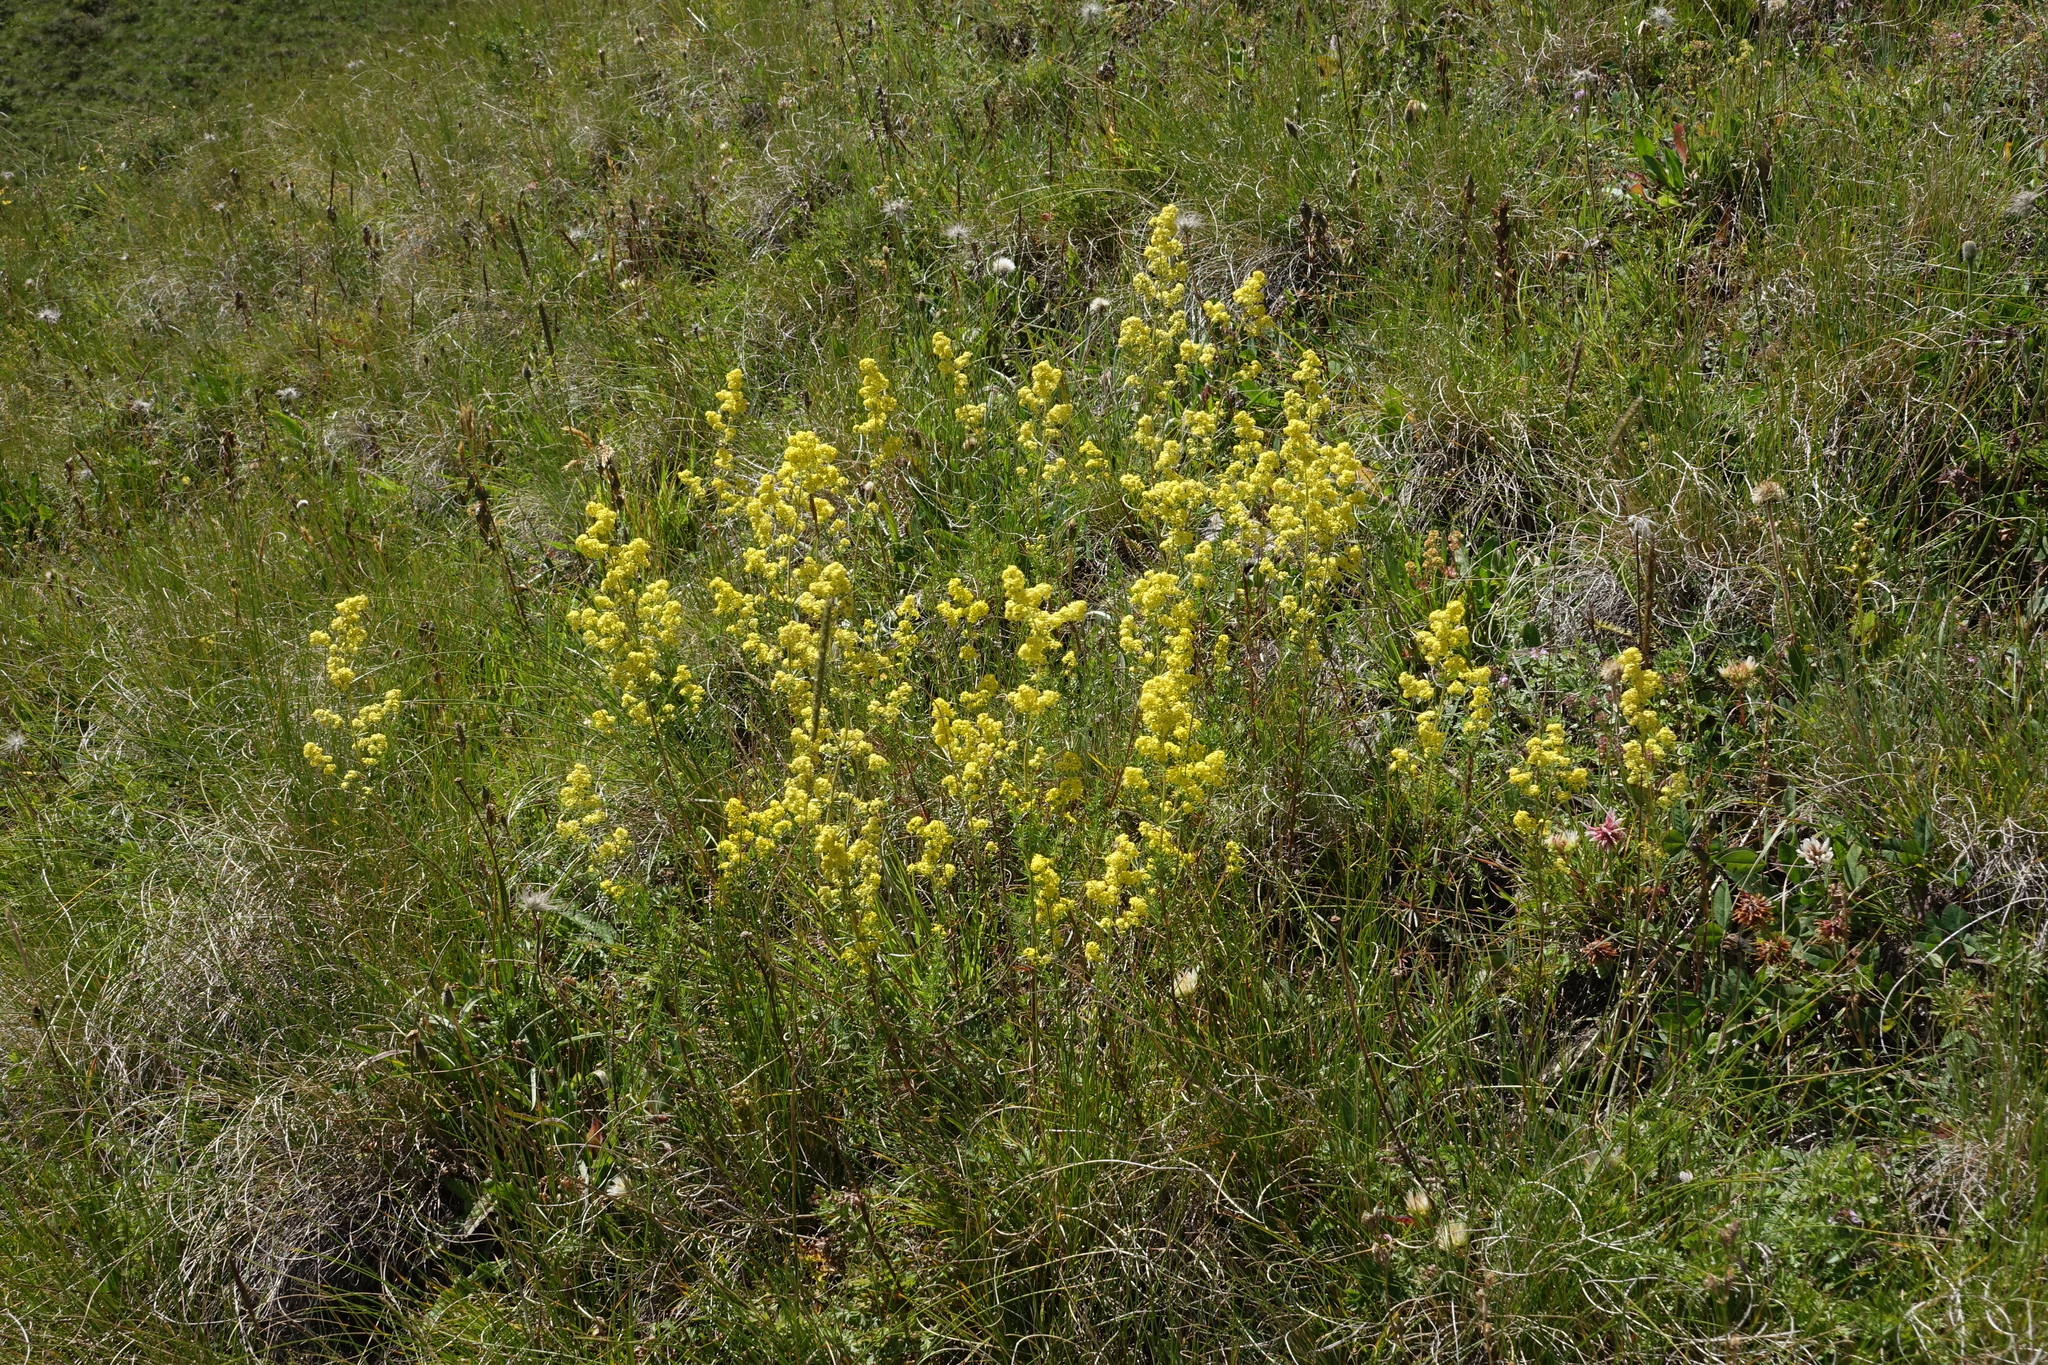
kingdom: Plantae
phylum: Tracheophyta
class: Magnoliopsida
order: Gentianales
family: Rubiaceae
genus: Galium
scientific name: Galium verum
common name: Lady's bedstraw
